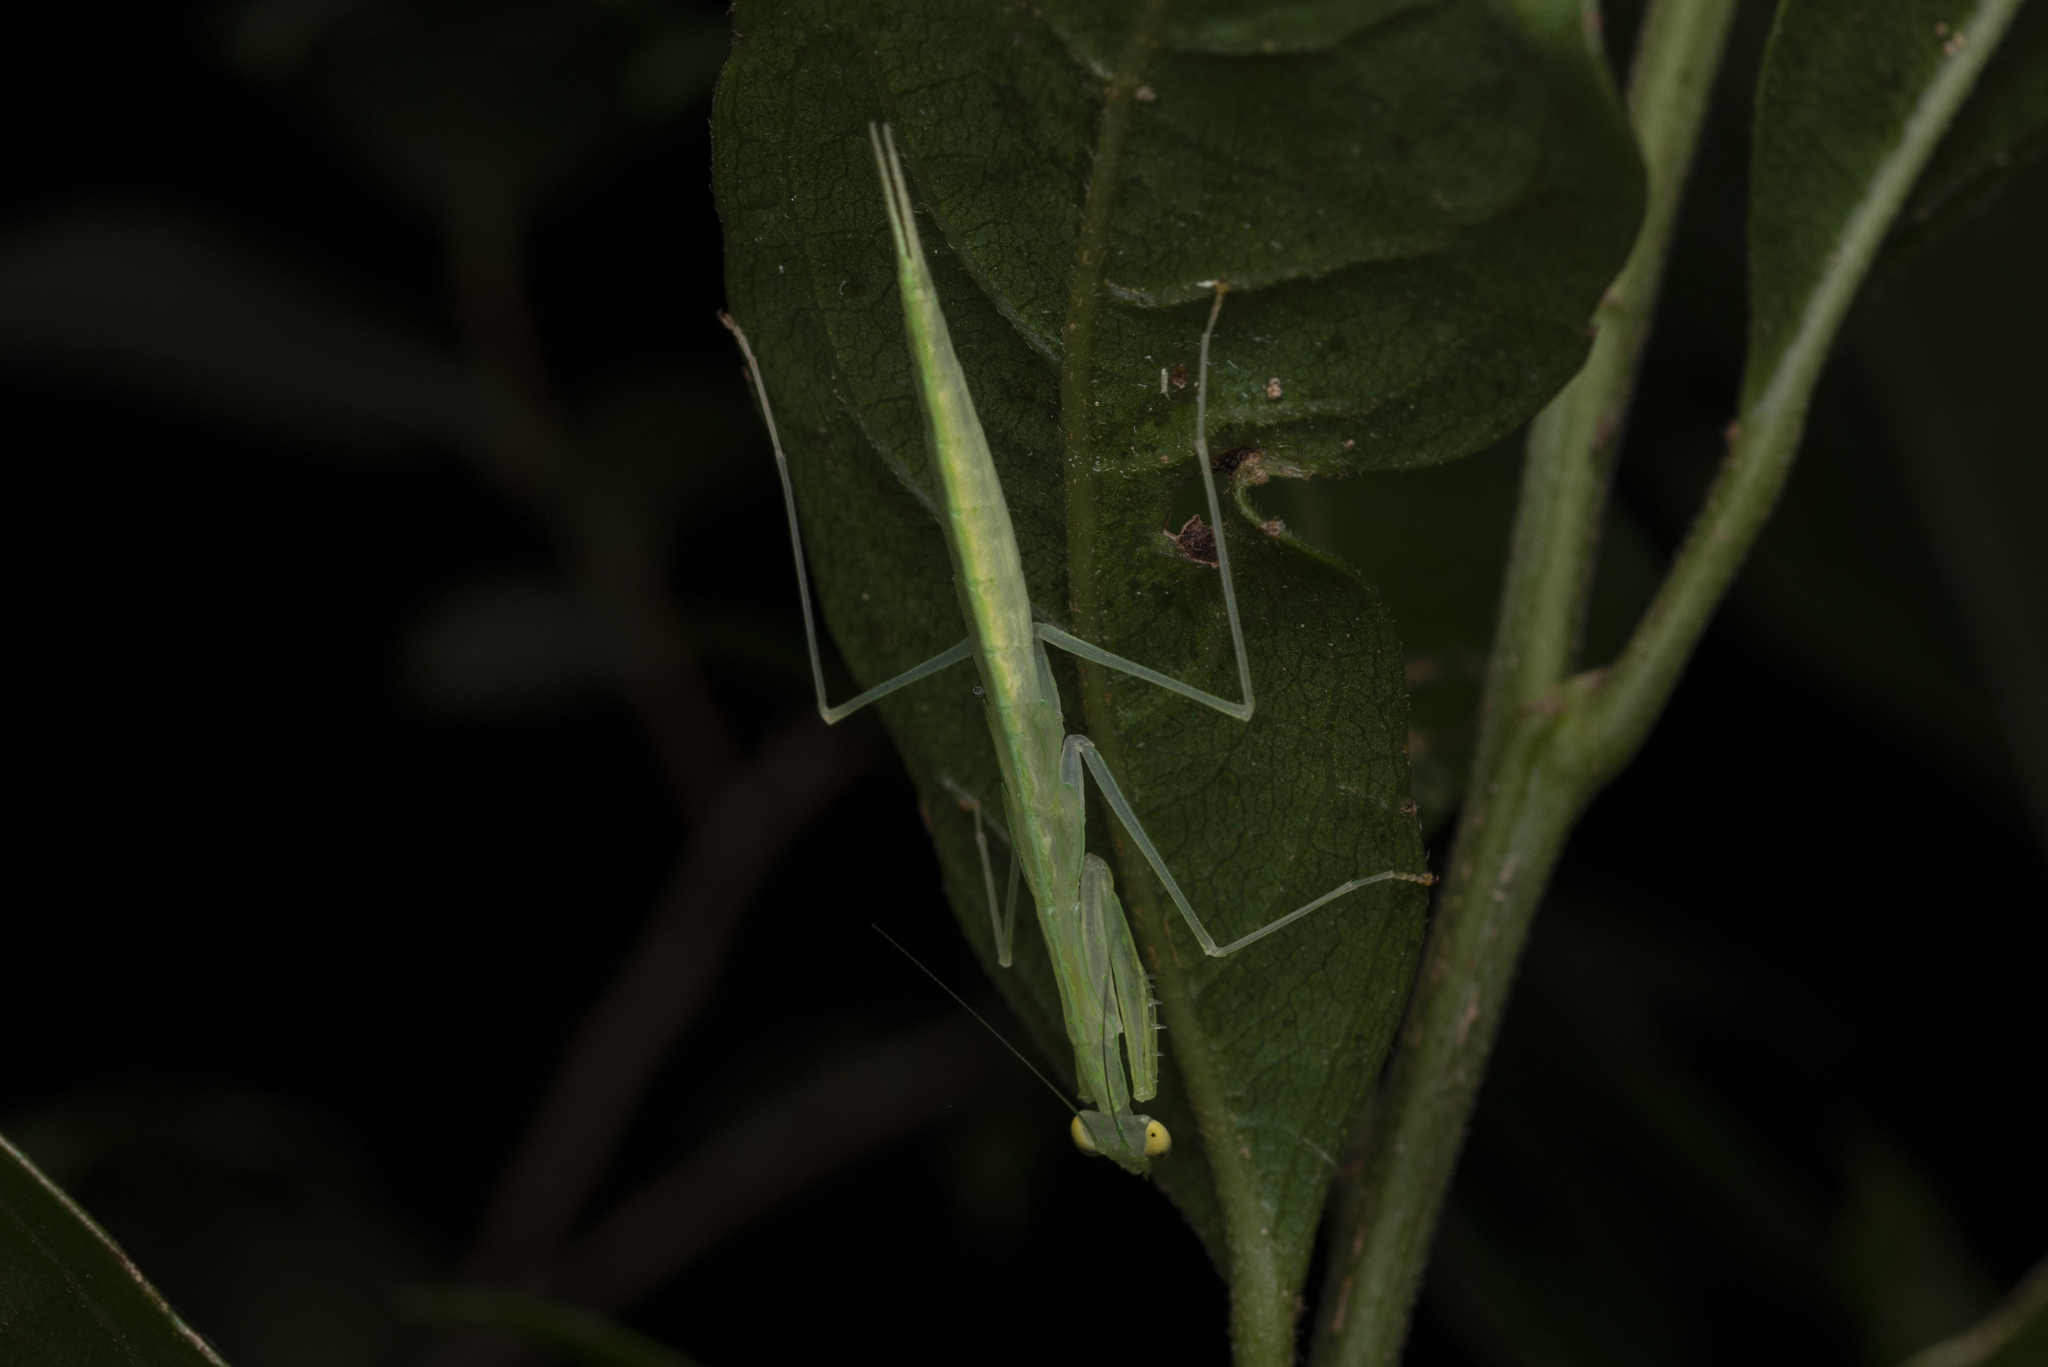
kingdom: Animalia
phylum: Arthropoda
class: Insecta
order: Mantodea
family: Nanomantidae
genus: Sinomantis
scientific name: Sinomantis denticulata
